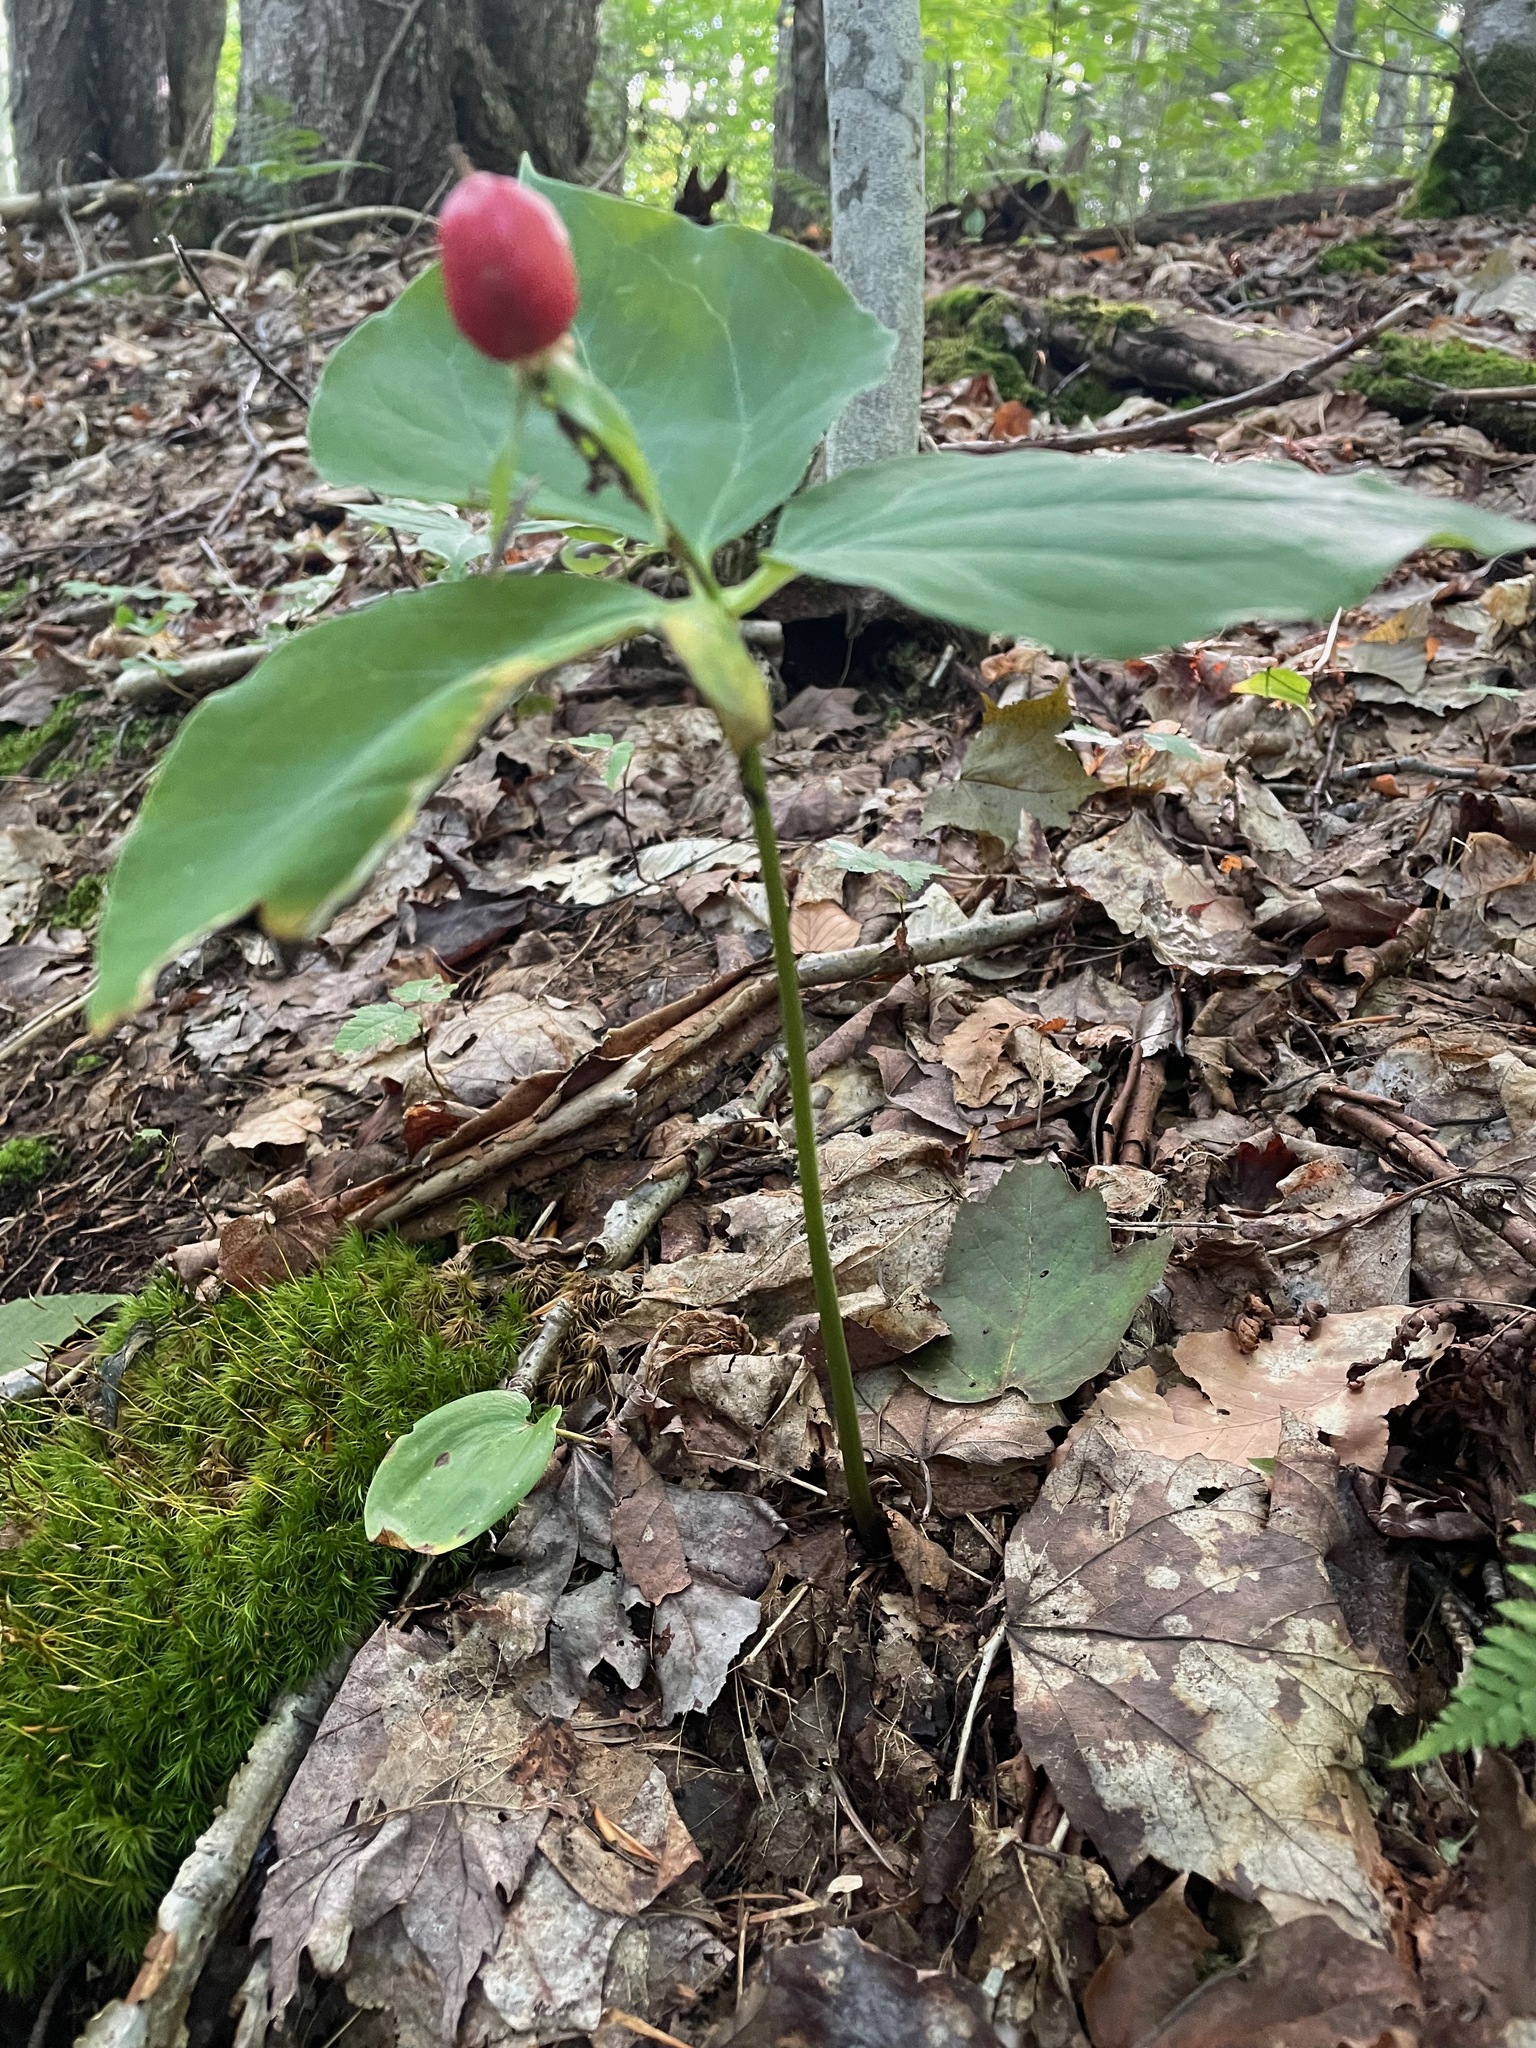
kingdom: Plantae
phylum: Tracheophyta
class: Liliopsida
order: Liliales
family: Melanthiaceae
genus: Trillium
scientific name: Trillium undulatum
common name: Paint trillium
